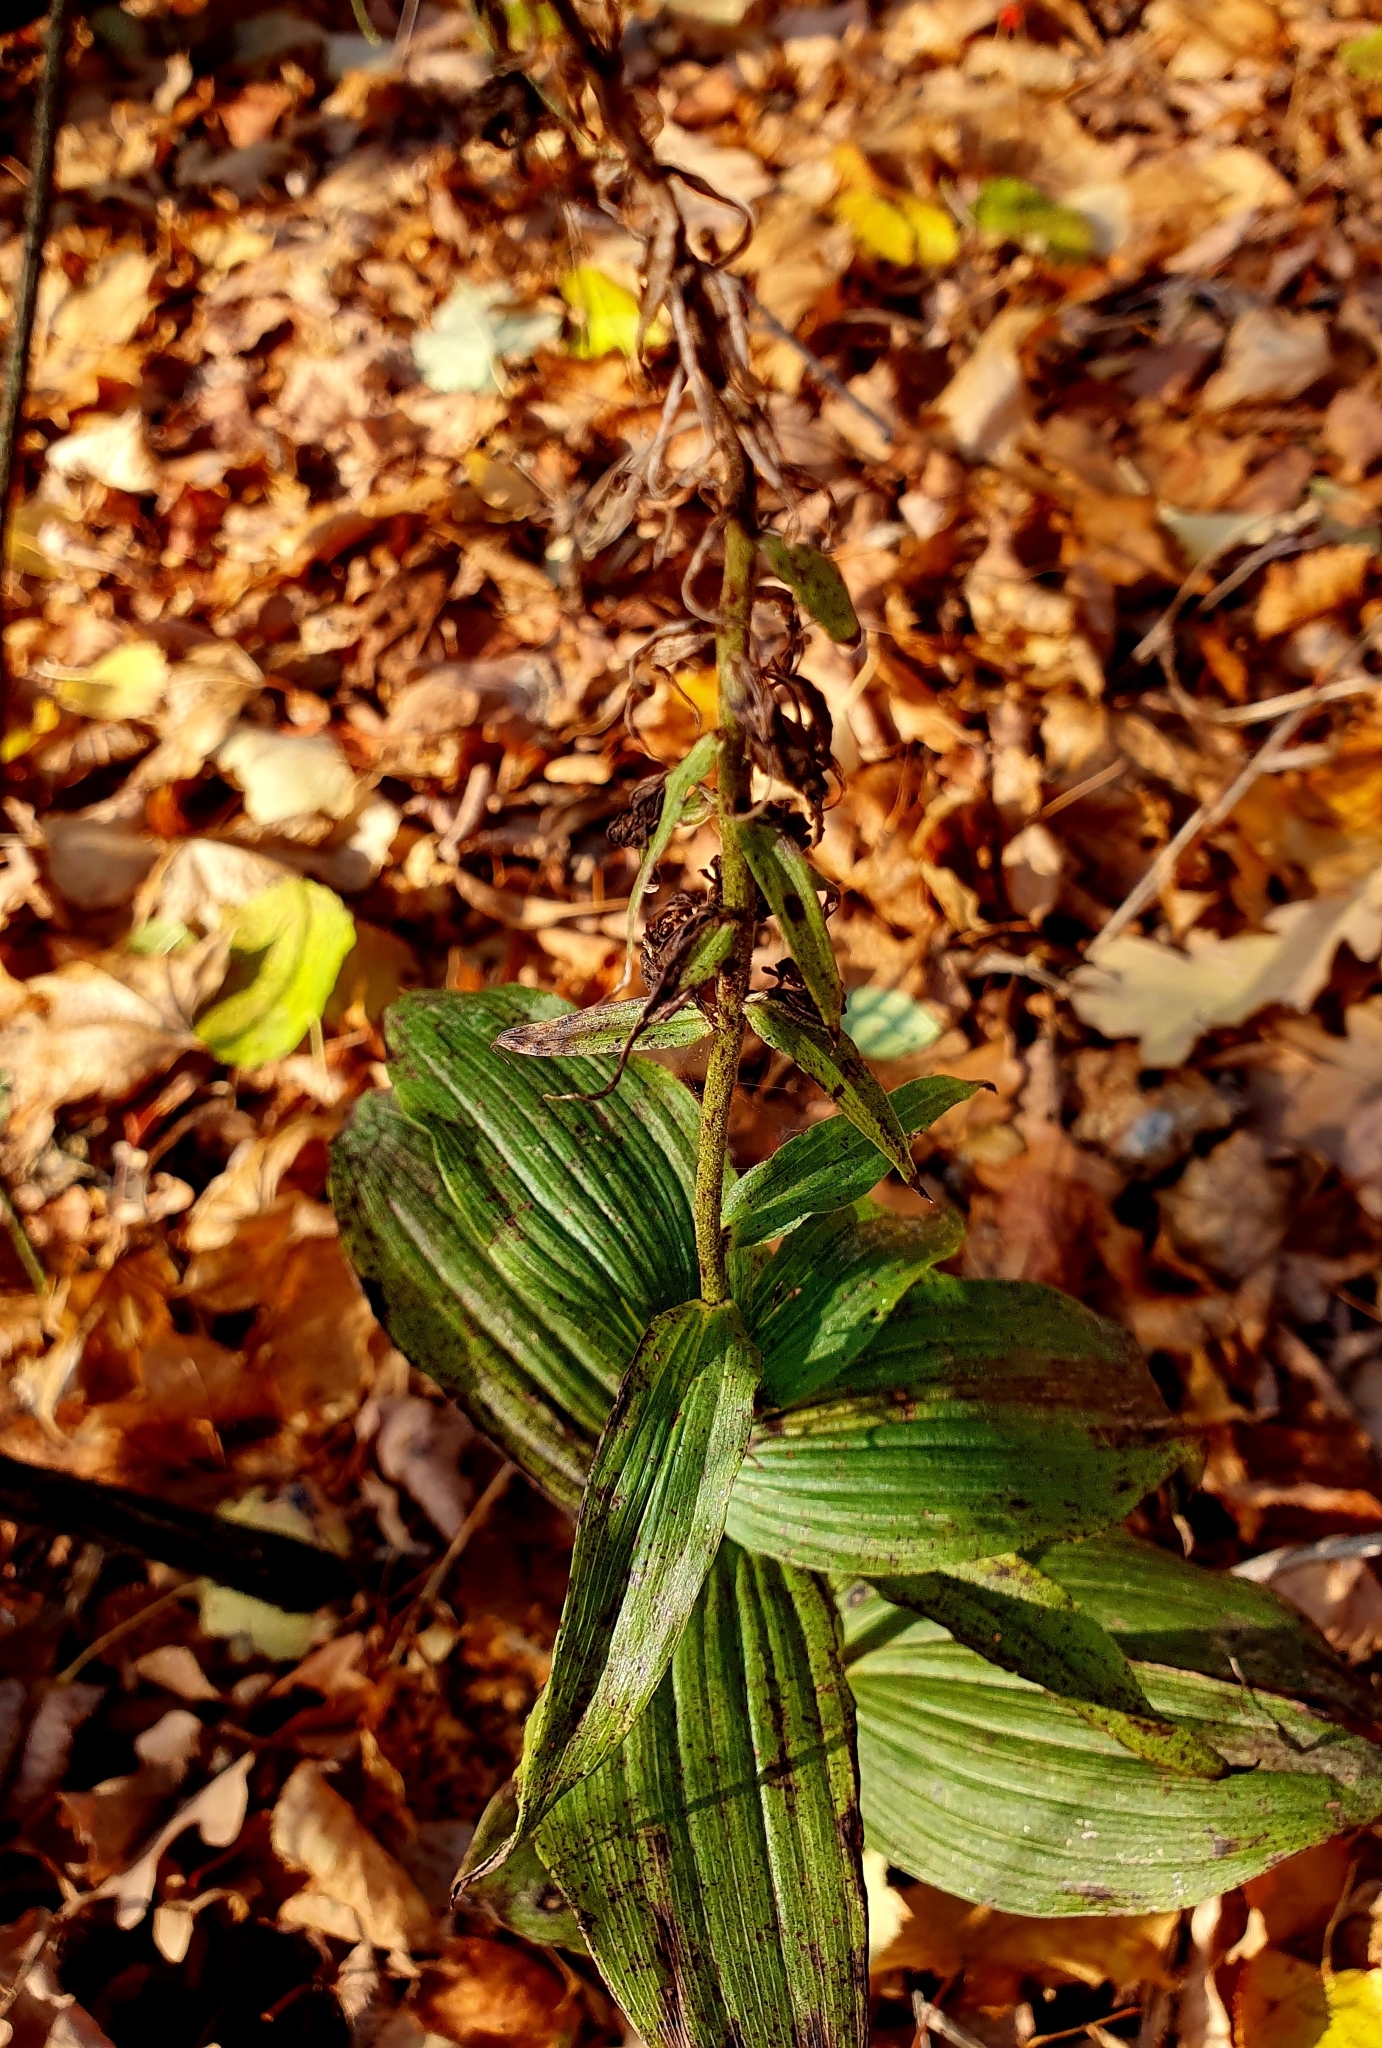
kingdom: Plantae
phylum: Tracheophyta
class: Liliopsida
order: Asparagales
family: Orchidaceae
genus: Epipactis
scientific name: Epipactis helleborine
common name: Broad-leaved helleborine
